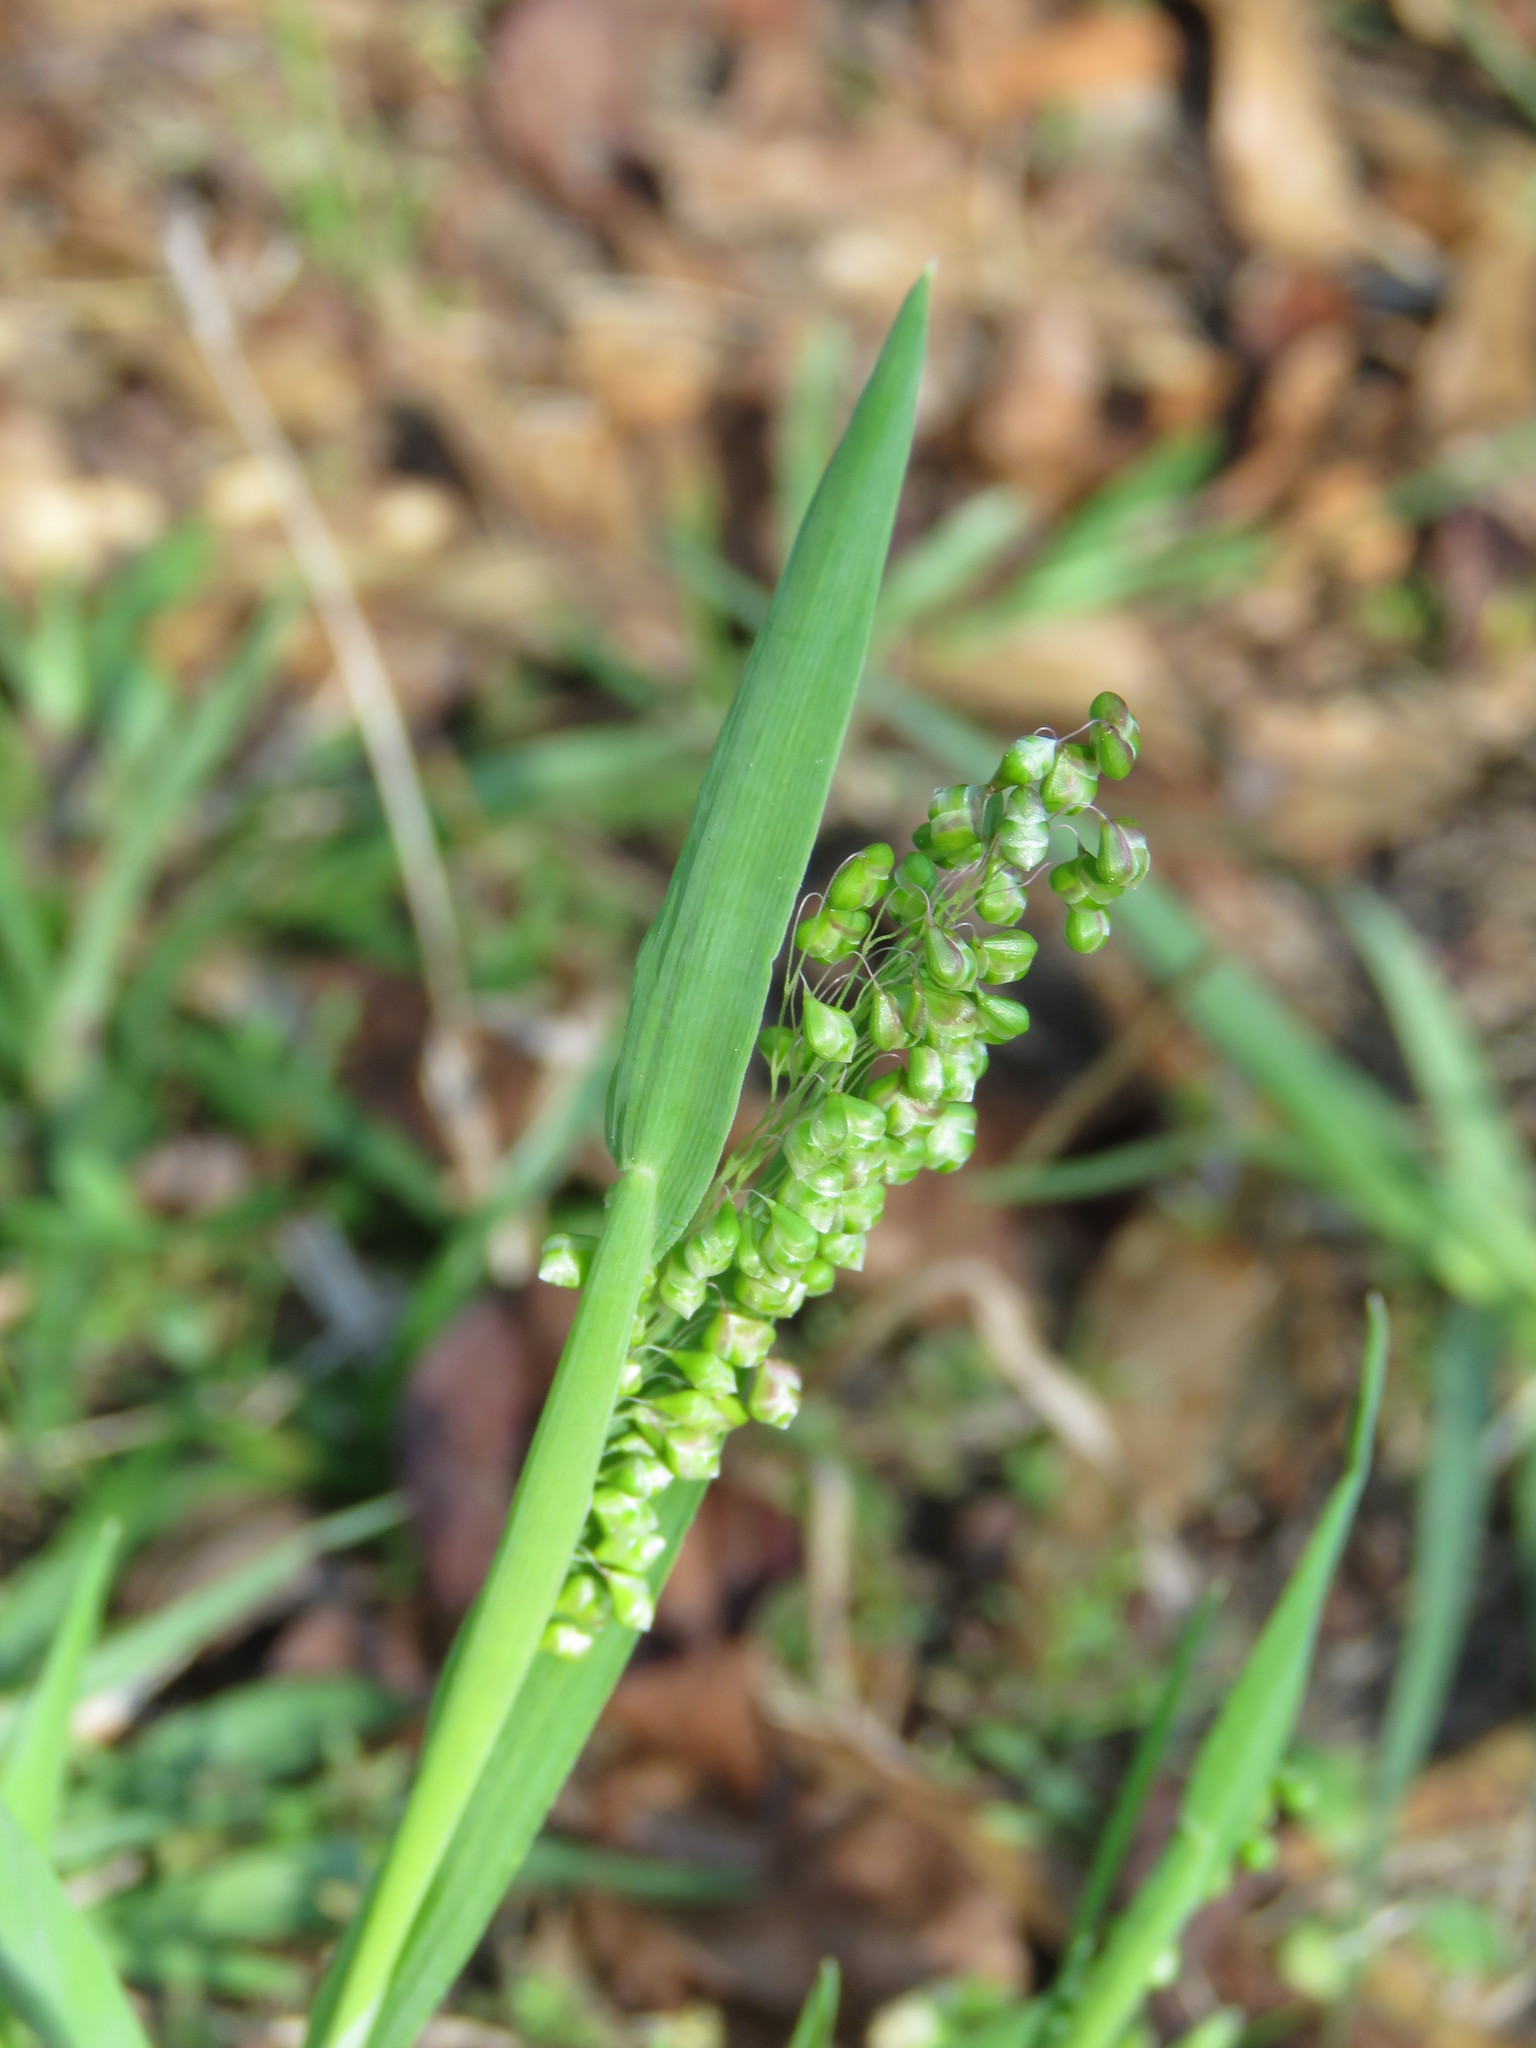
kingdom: Plantae
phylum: Tracheophyta
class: Liliopsida
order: Poales
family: Poaceae
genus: Briza
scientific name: Briza minor
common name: Lesser quaking-grass
